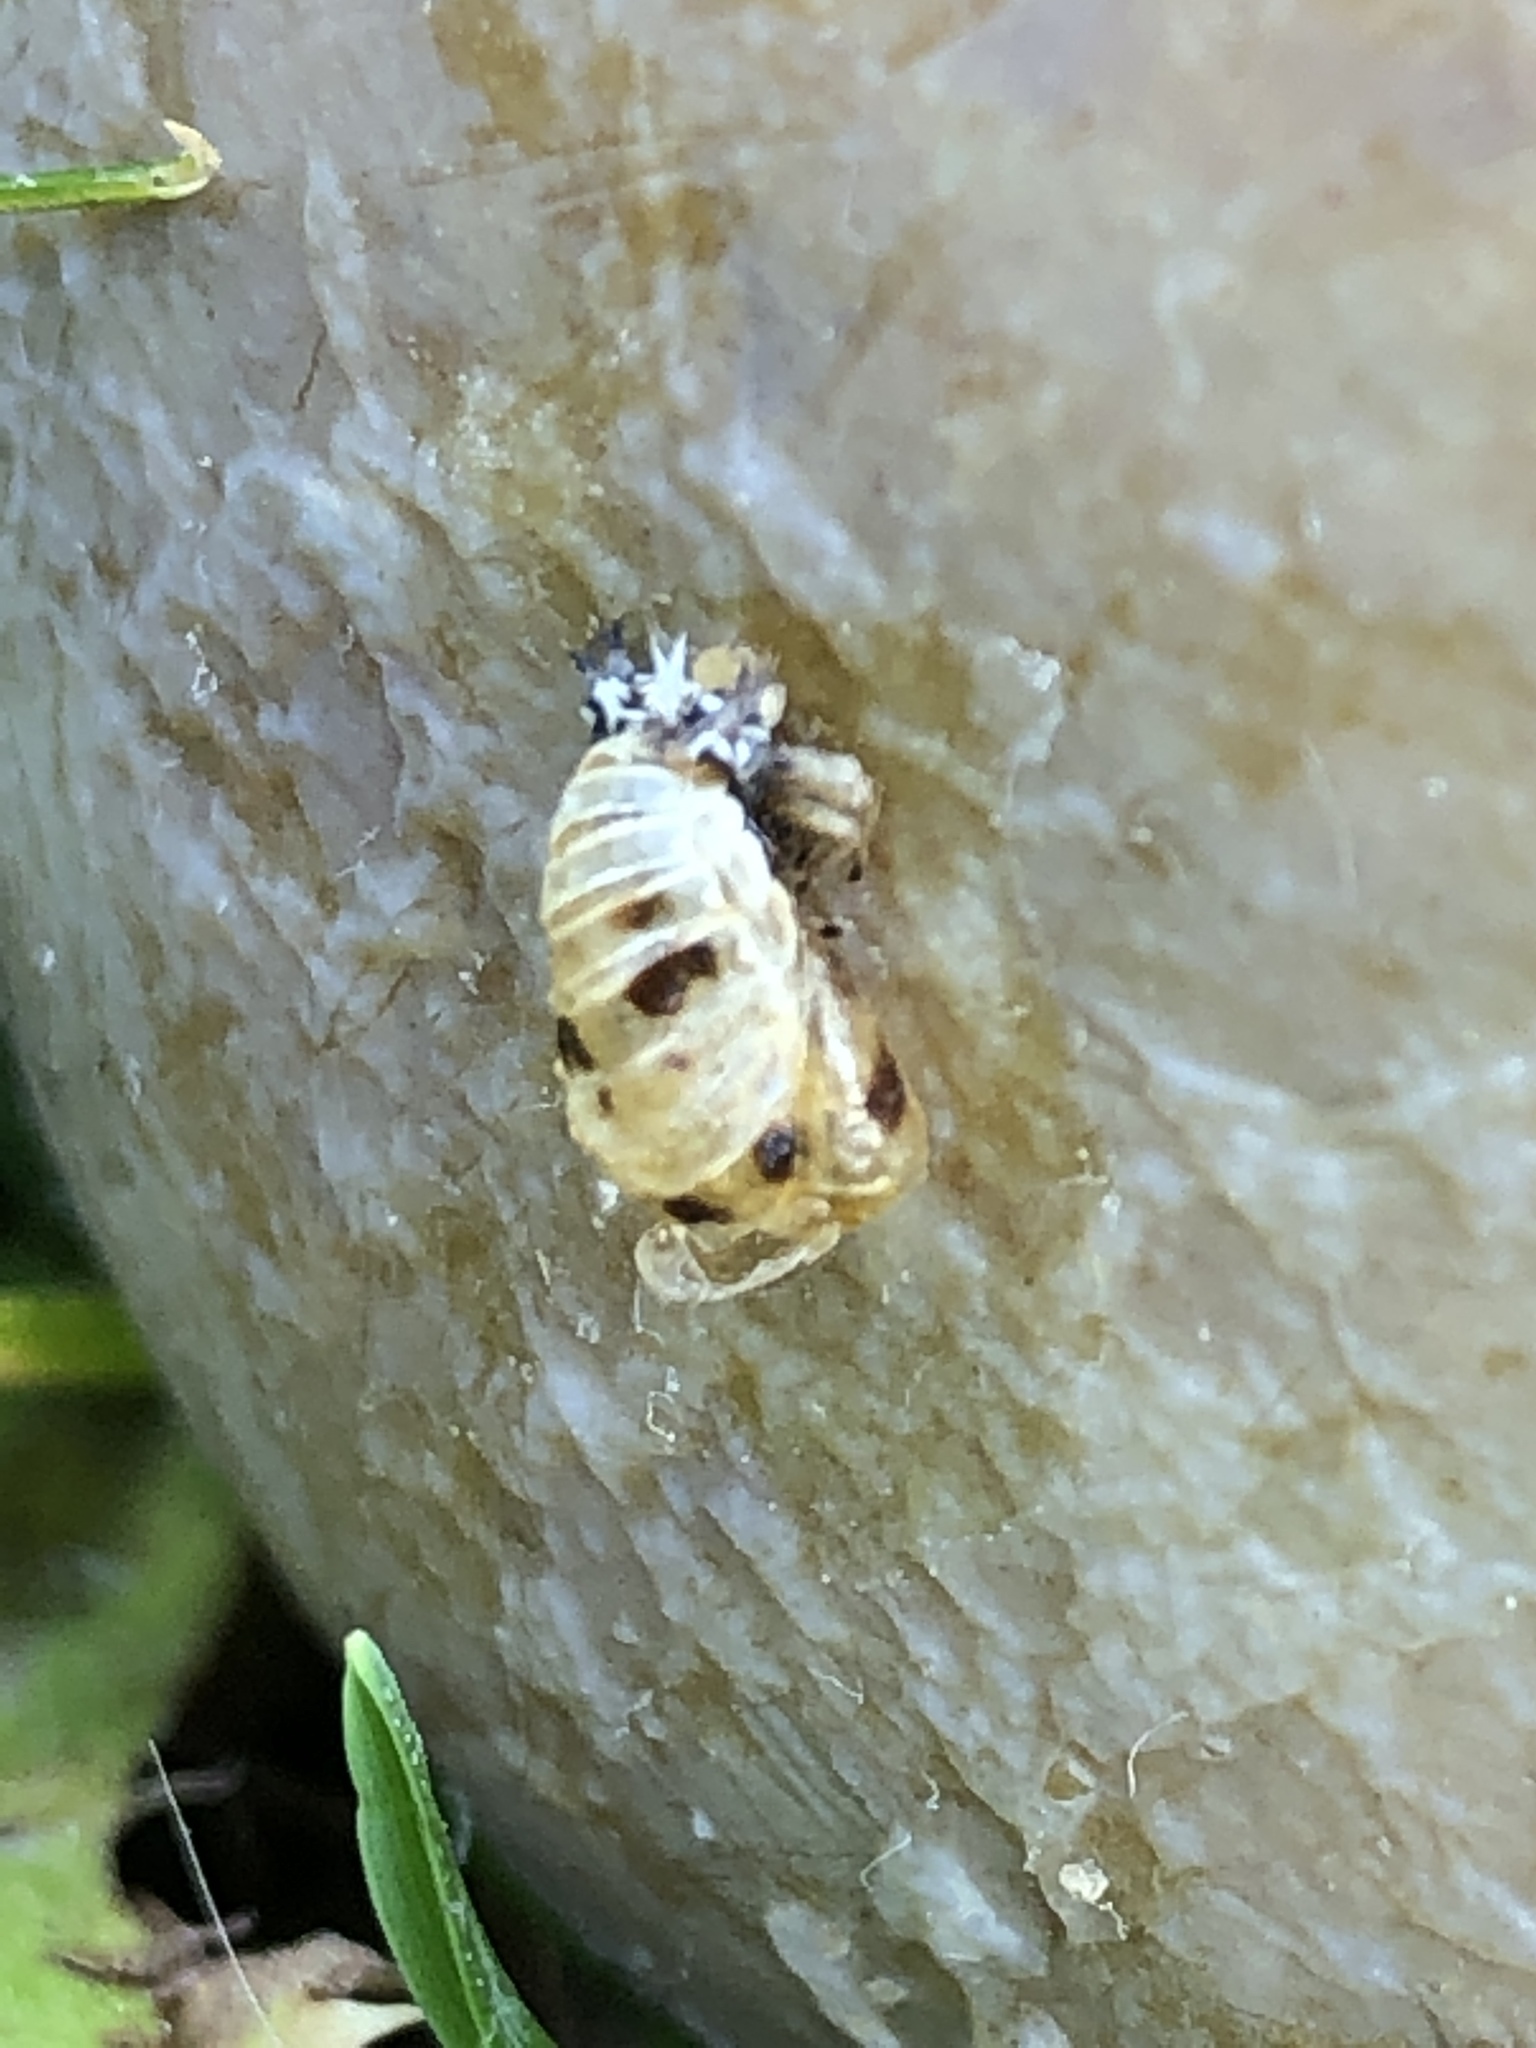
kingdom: Animalia
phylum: Arthropoda
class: Insecta
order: Coleoptera
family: Coccinellidae
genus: Harmonia
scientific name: Harmonia axyridis
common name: Harlequin ladybird
